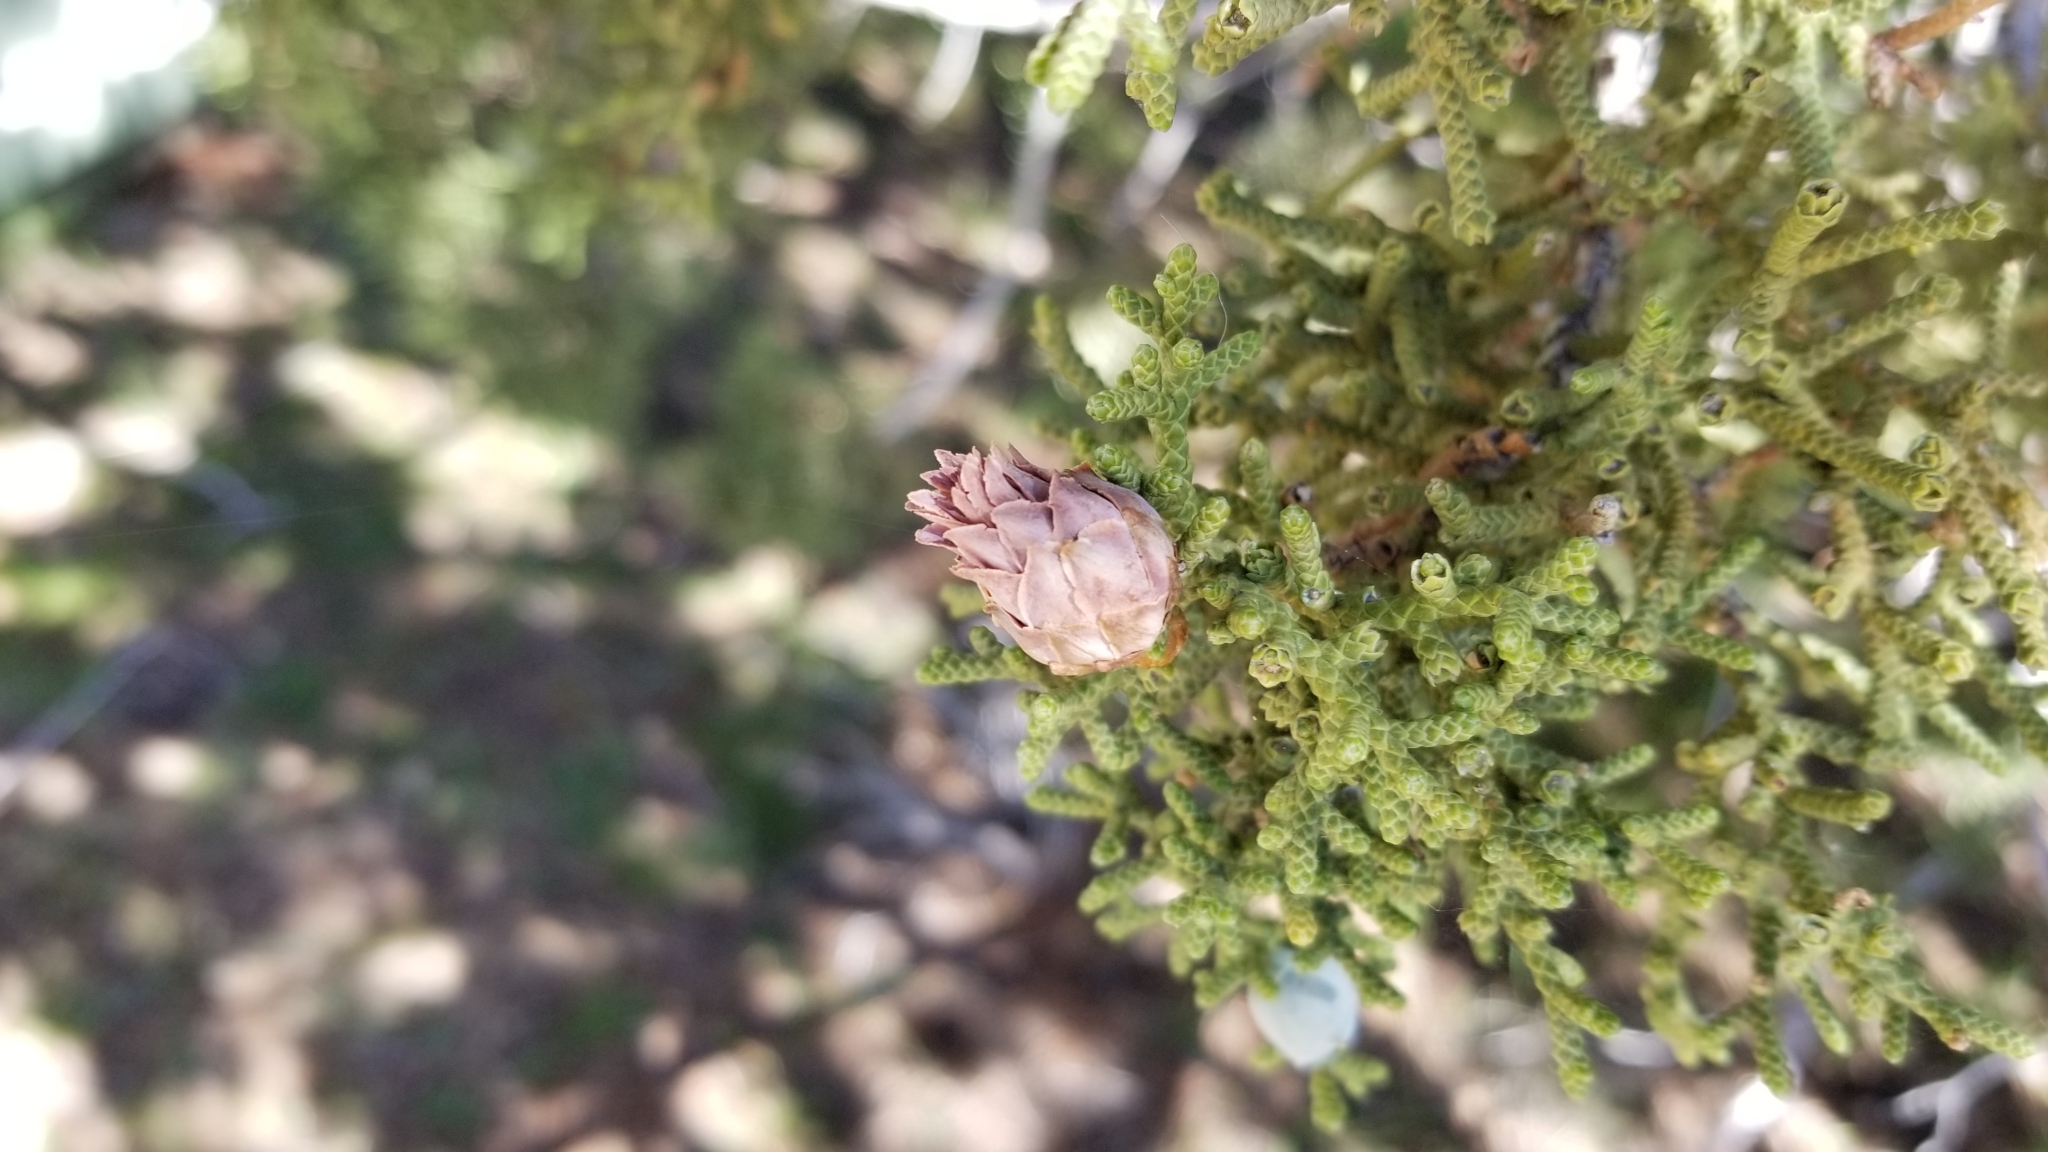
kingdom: Plantae
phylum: Tracheophyta
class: Pinopsida
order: Pinales
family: Cupressaceae
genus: Juniperus
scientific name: Juniperus californica
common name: California juniper
